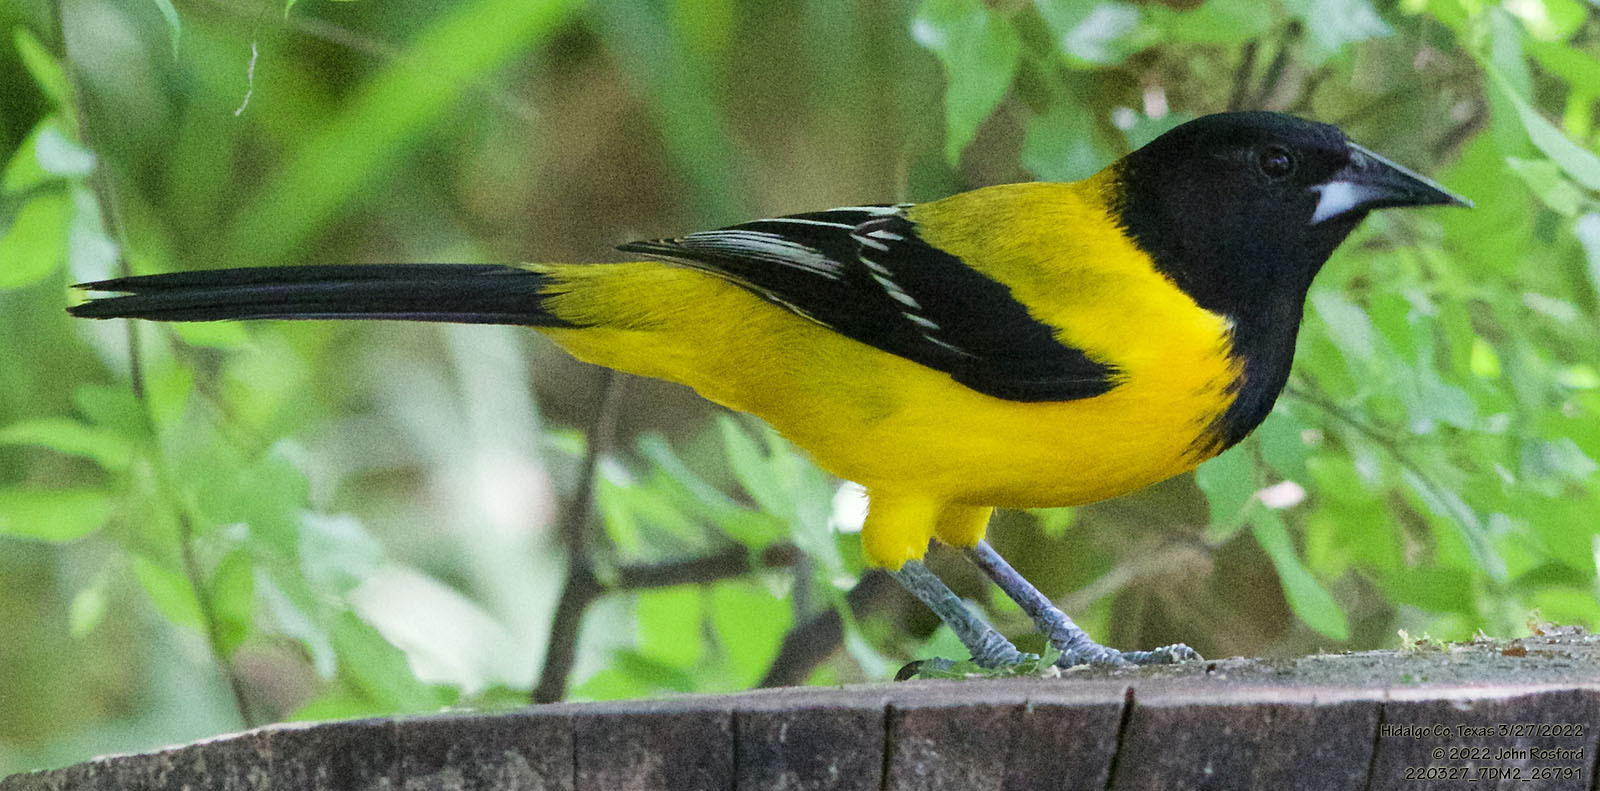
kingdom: Animalia
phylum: Chordata
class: Aves
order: Passeriformes
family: Icteridae
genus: Icterus
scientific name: Icterus graduacauda
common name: Audubon's oriole
